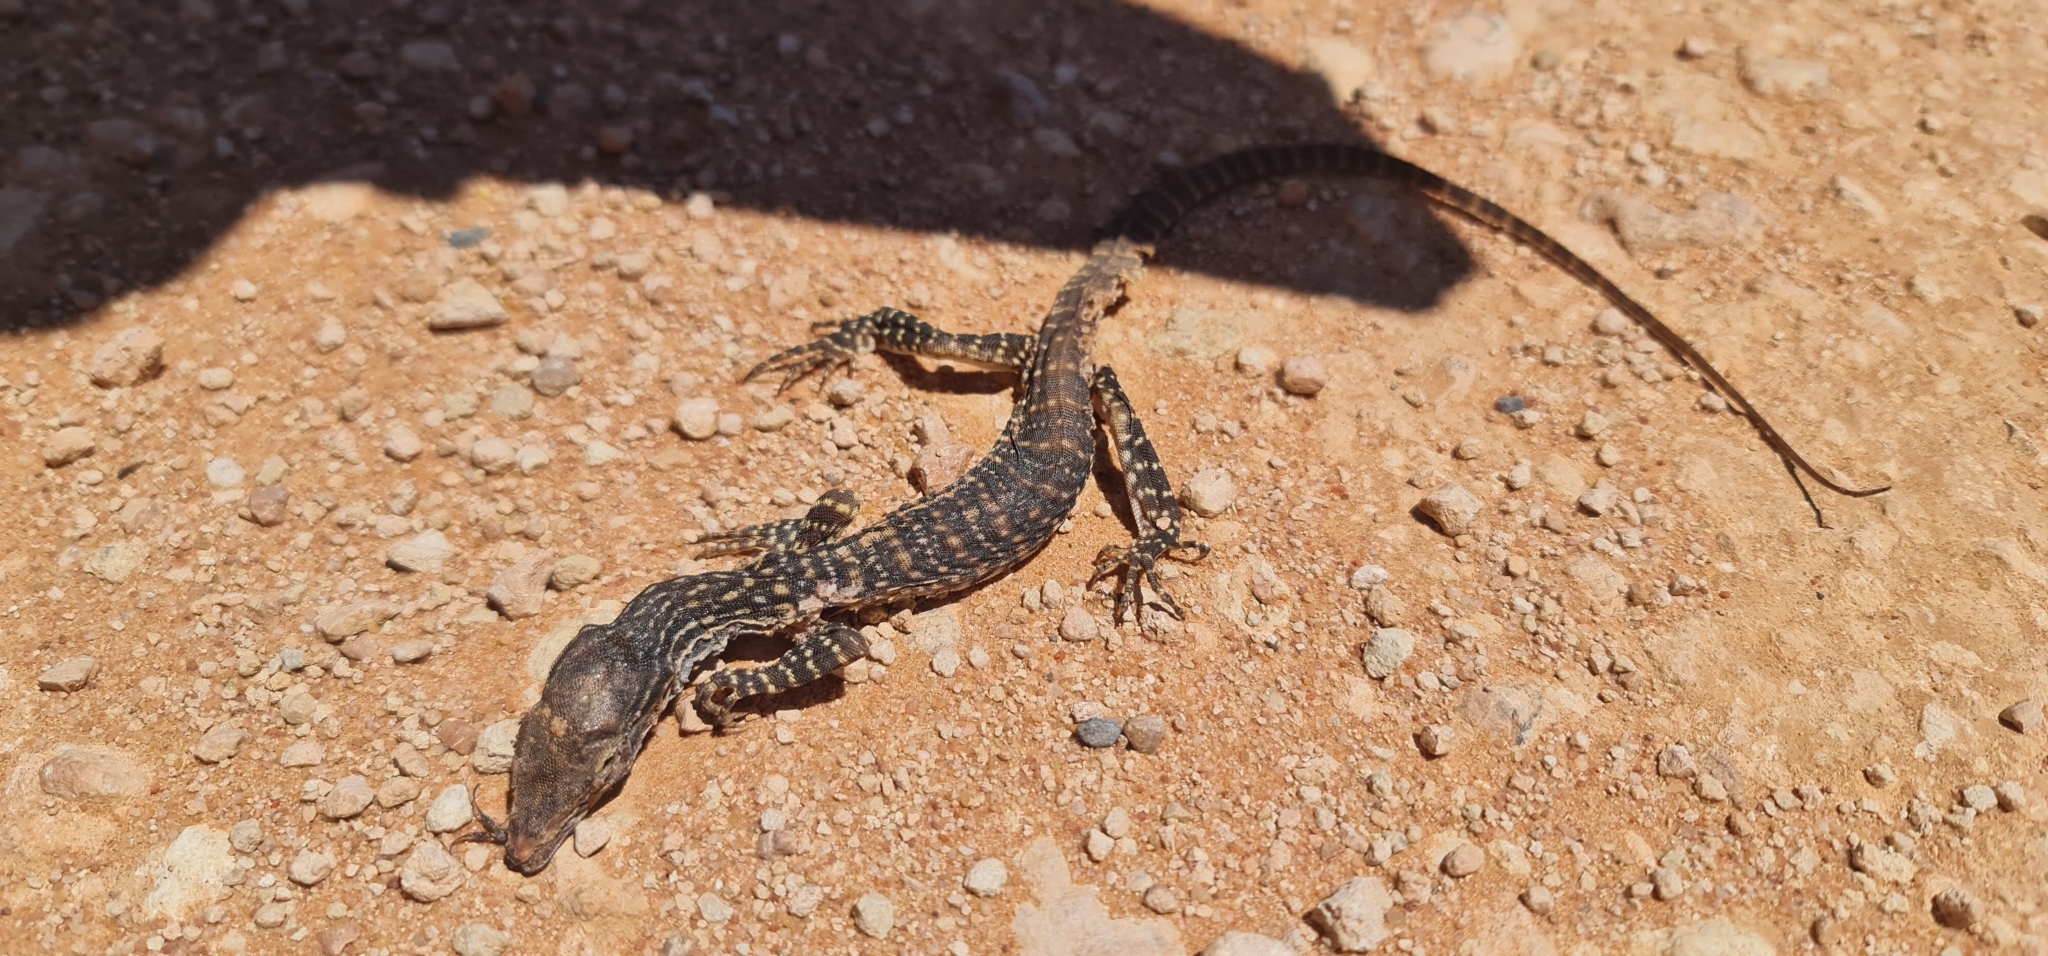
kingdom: Animalia
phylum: Chordata
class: Squamata
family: Varanidae
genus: Varanus
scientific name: Varanus gouldii
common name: Gould's goanna
